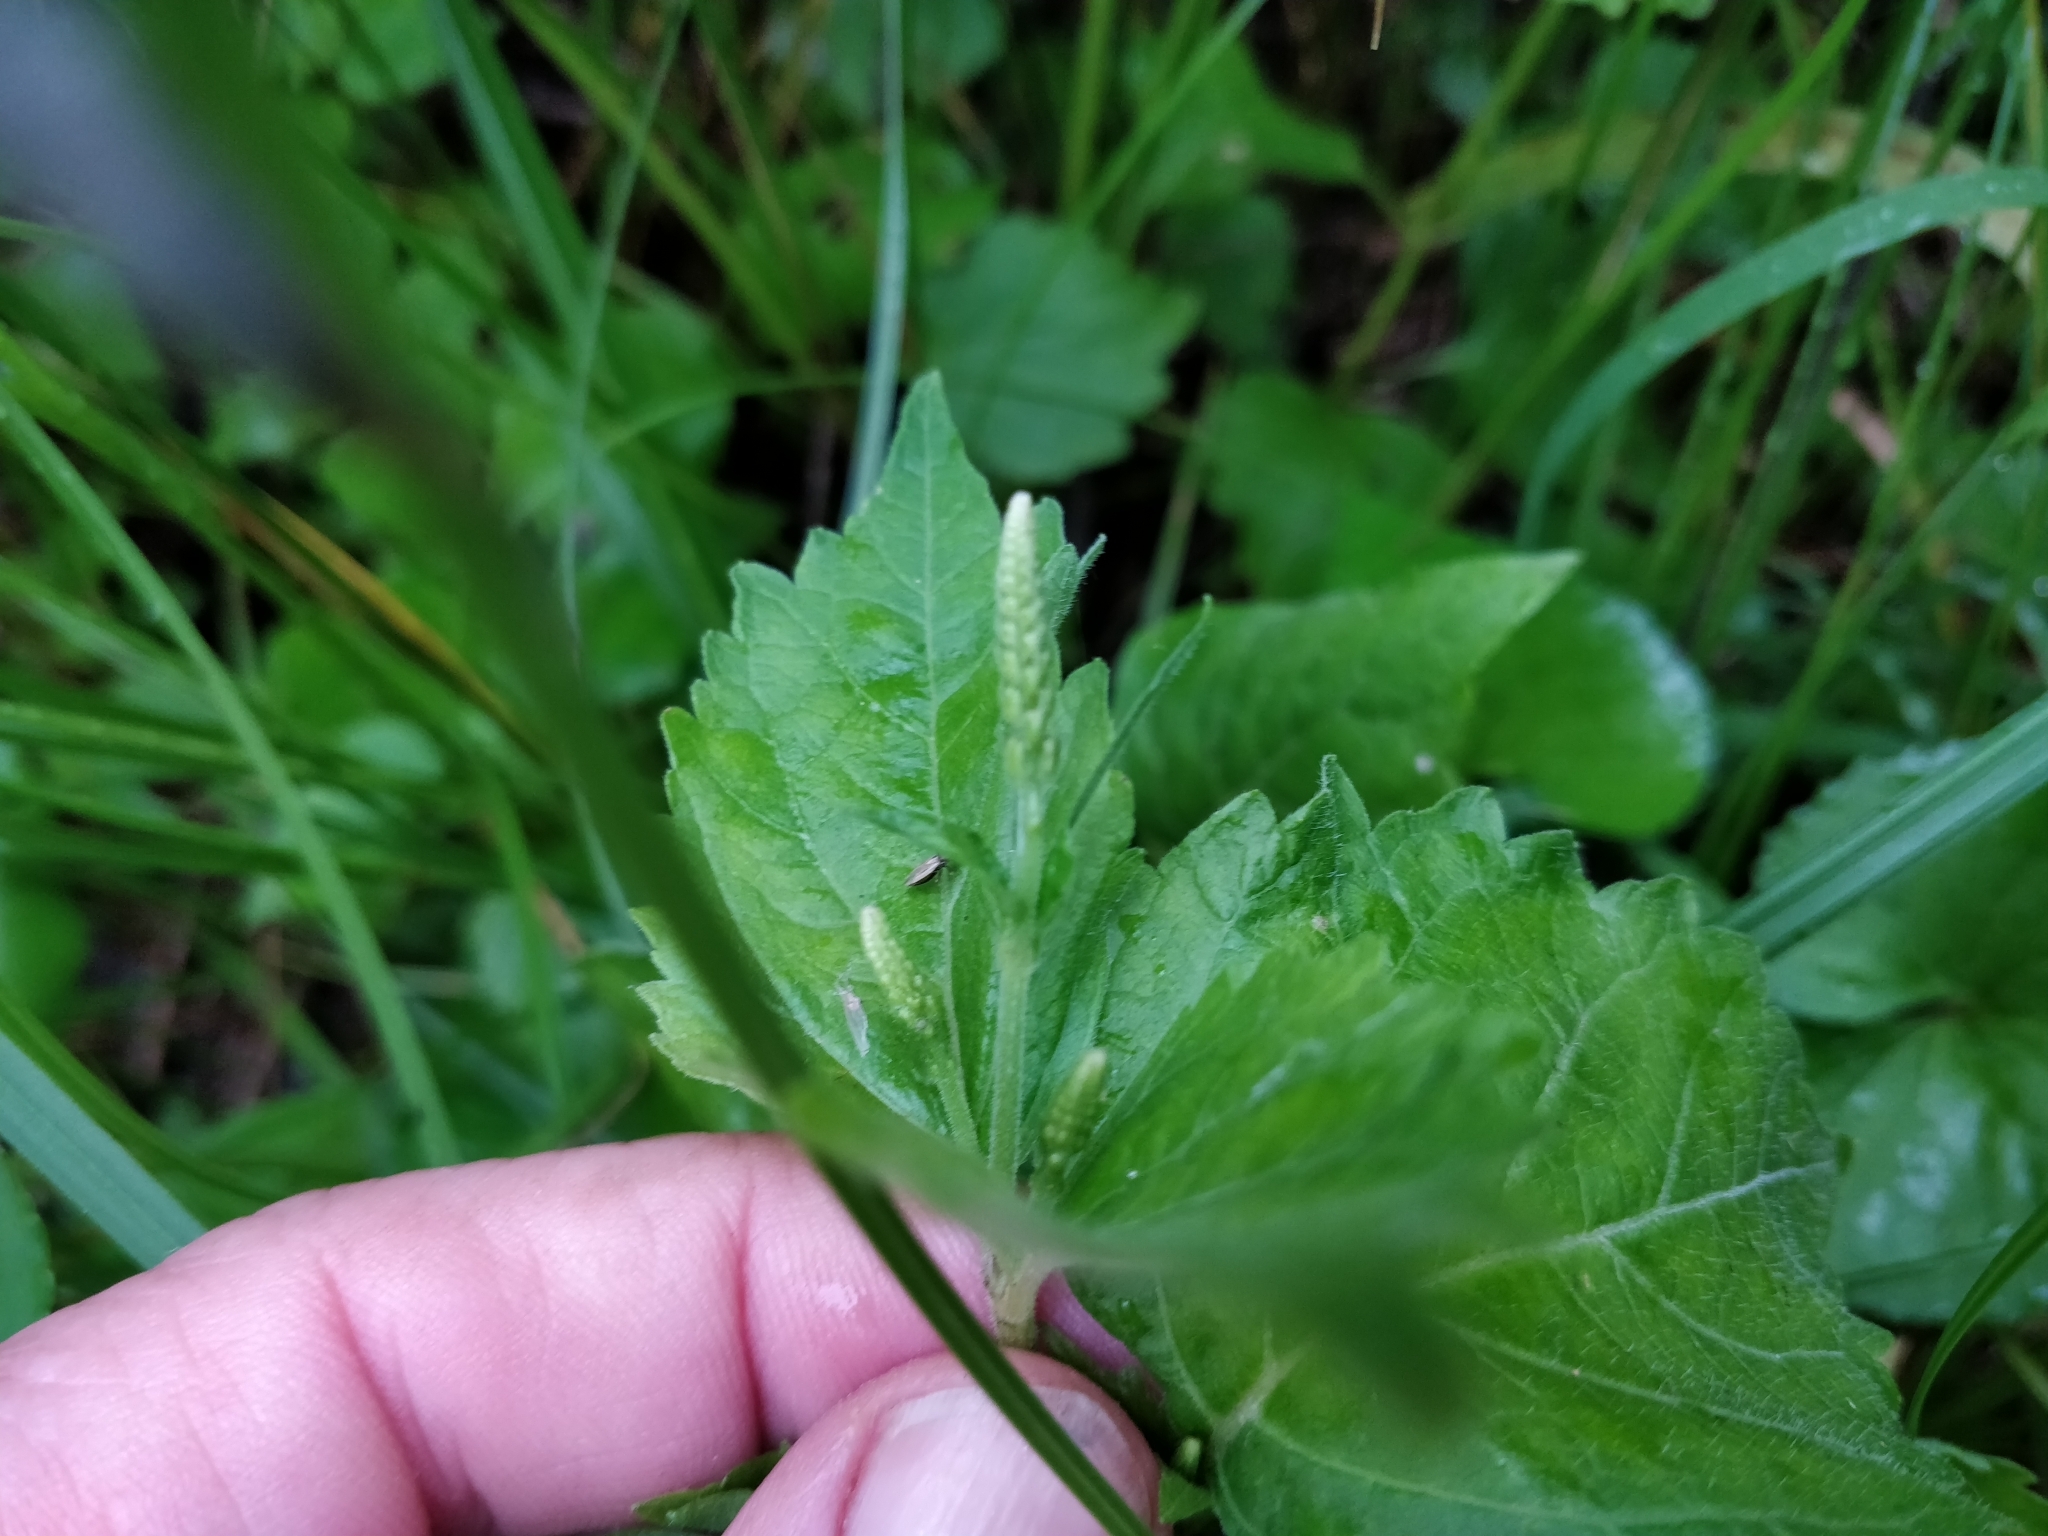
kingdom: Plantae
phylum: Tracheophyta
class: Magnoliopsida
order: Lamiales
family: Phrymaceae
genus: Phryma
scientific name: Phryma leptostachya
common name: American lopseed
